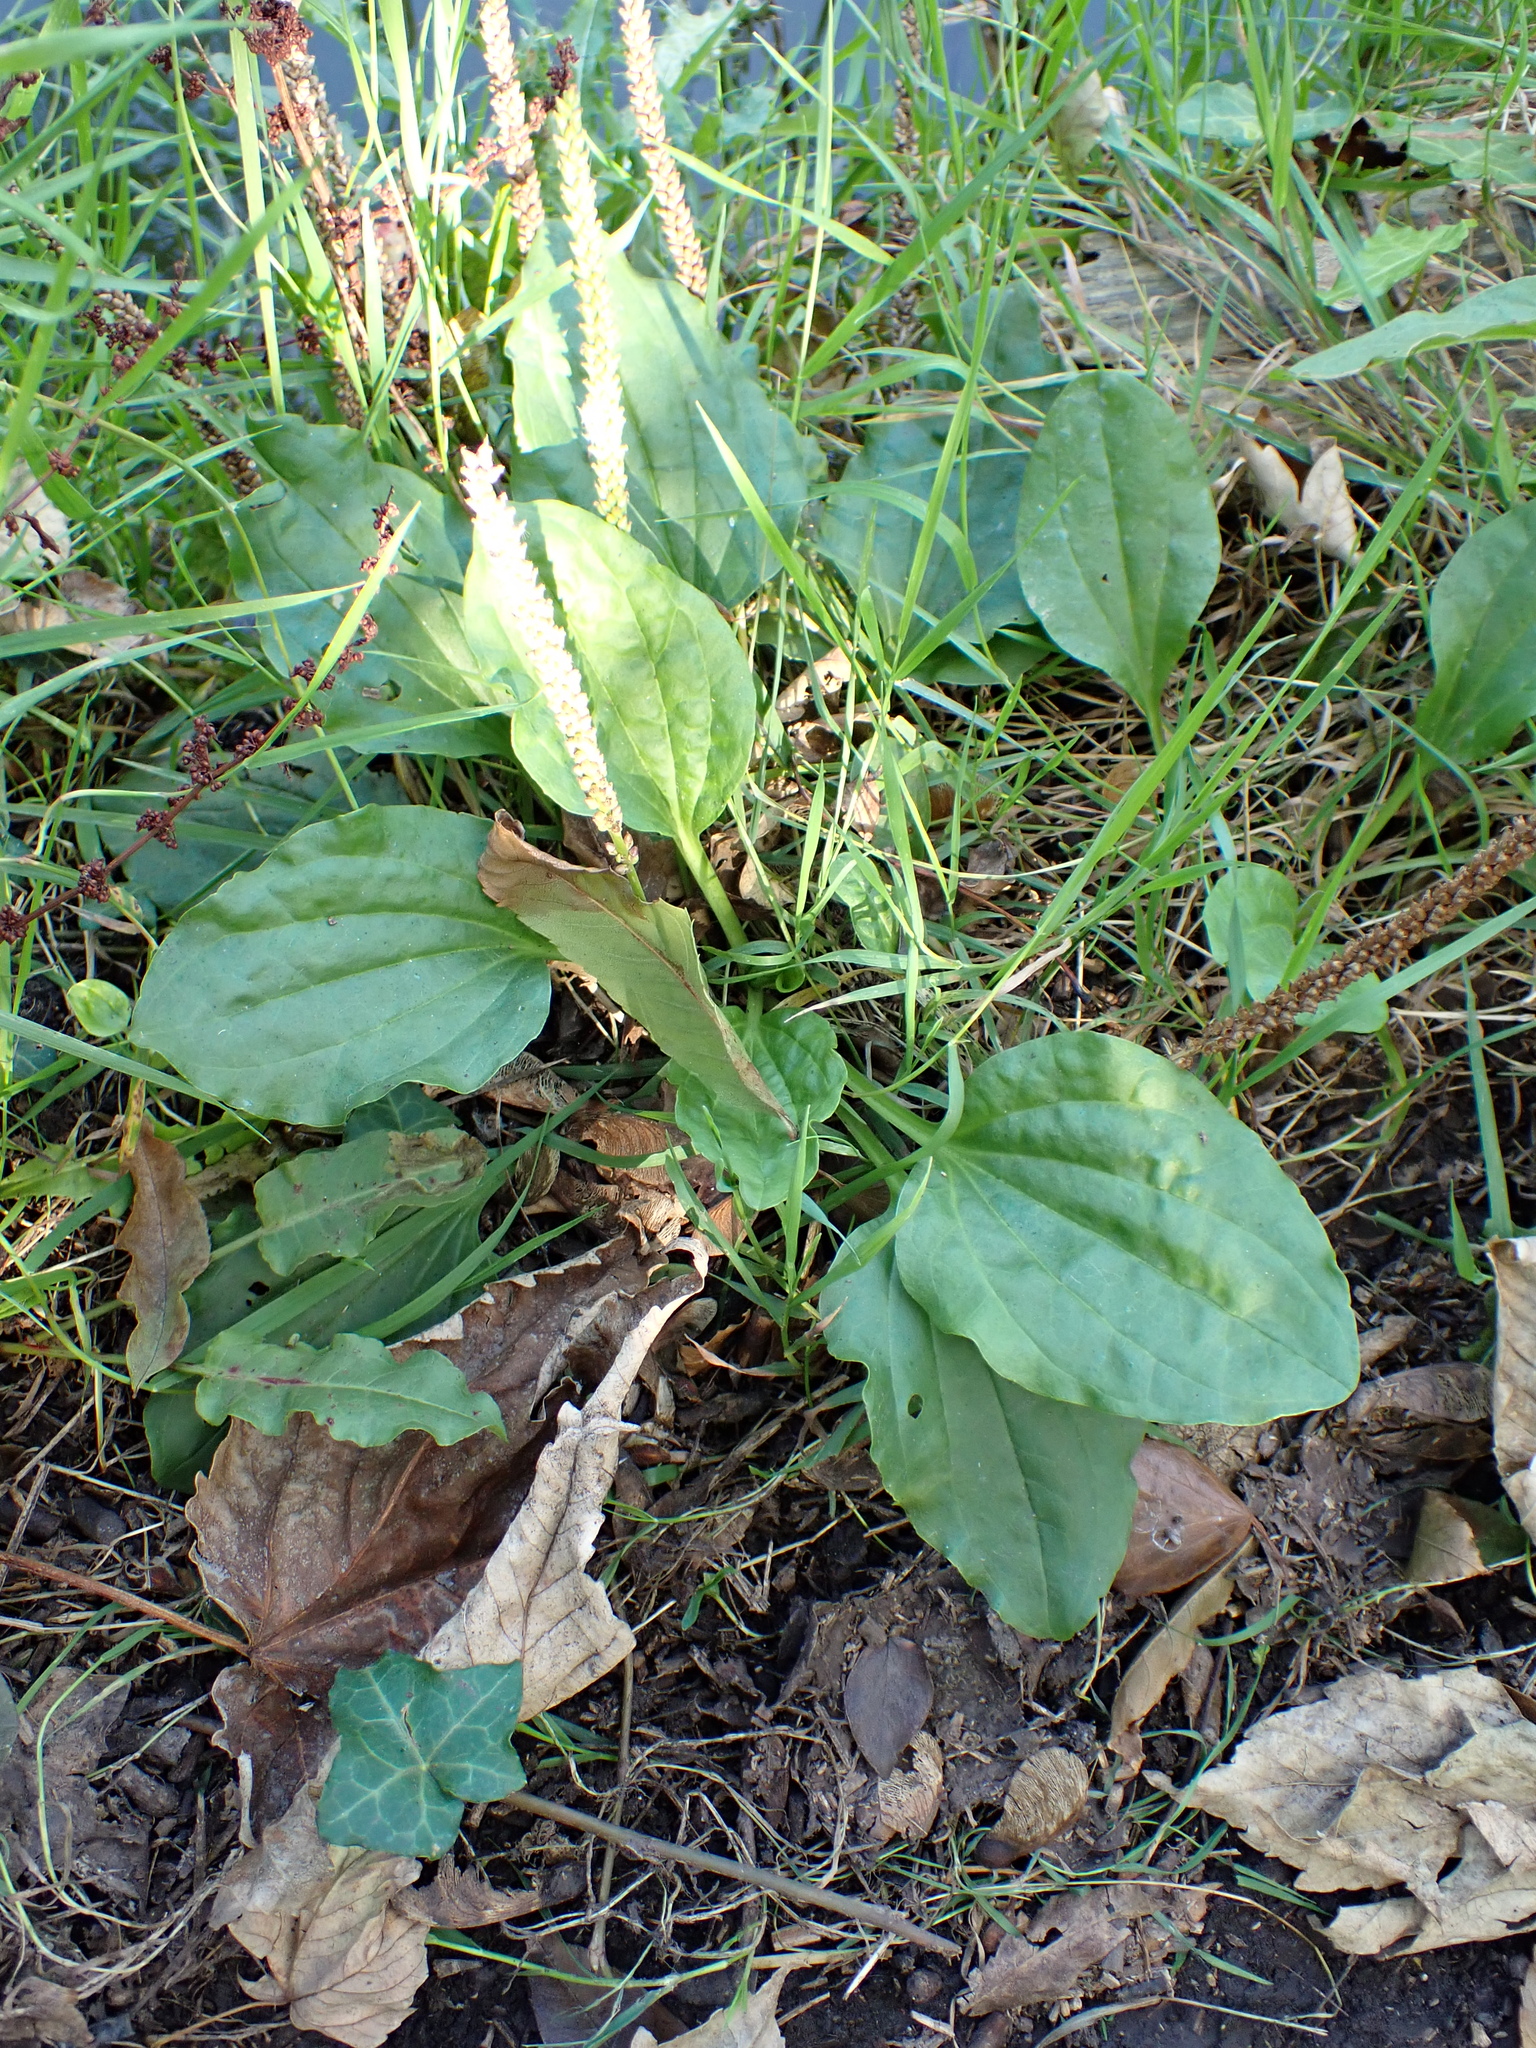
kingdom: Plantae
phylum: Tracheophyta
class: Magnoliopsida
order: Lamiales
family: Plantaginaceae
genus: Plantago
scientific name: Plantago major
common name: Common plantain
